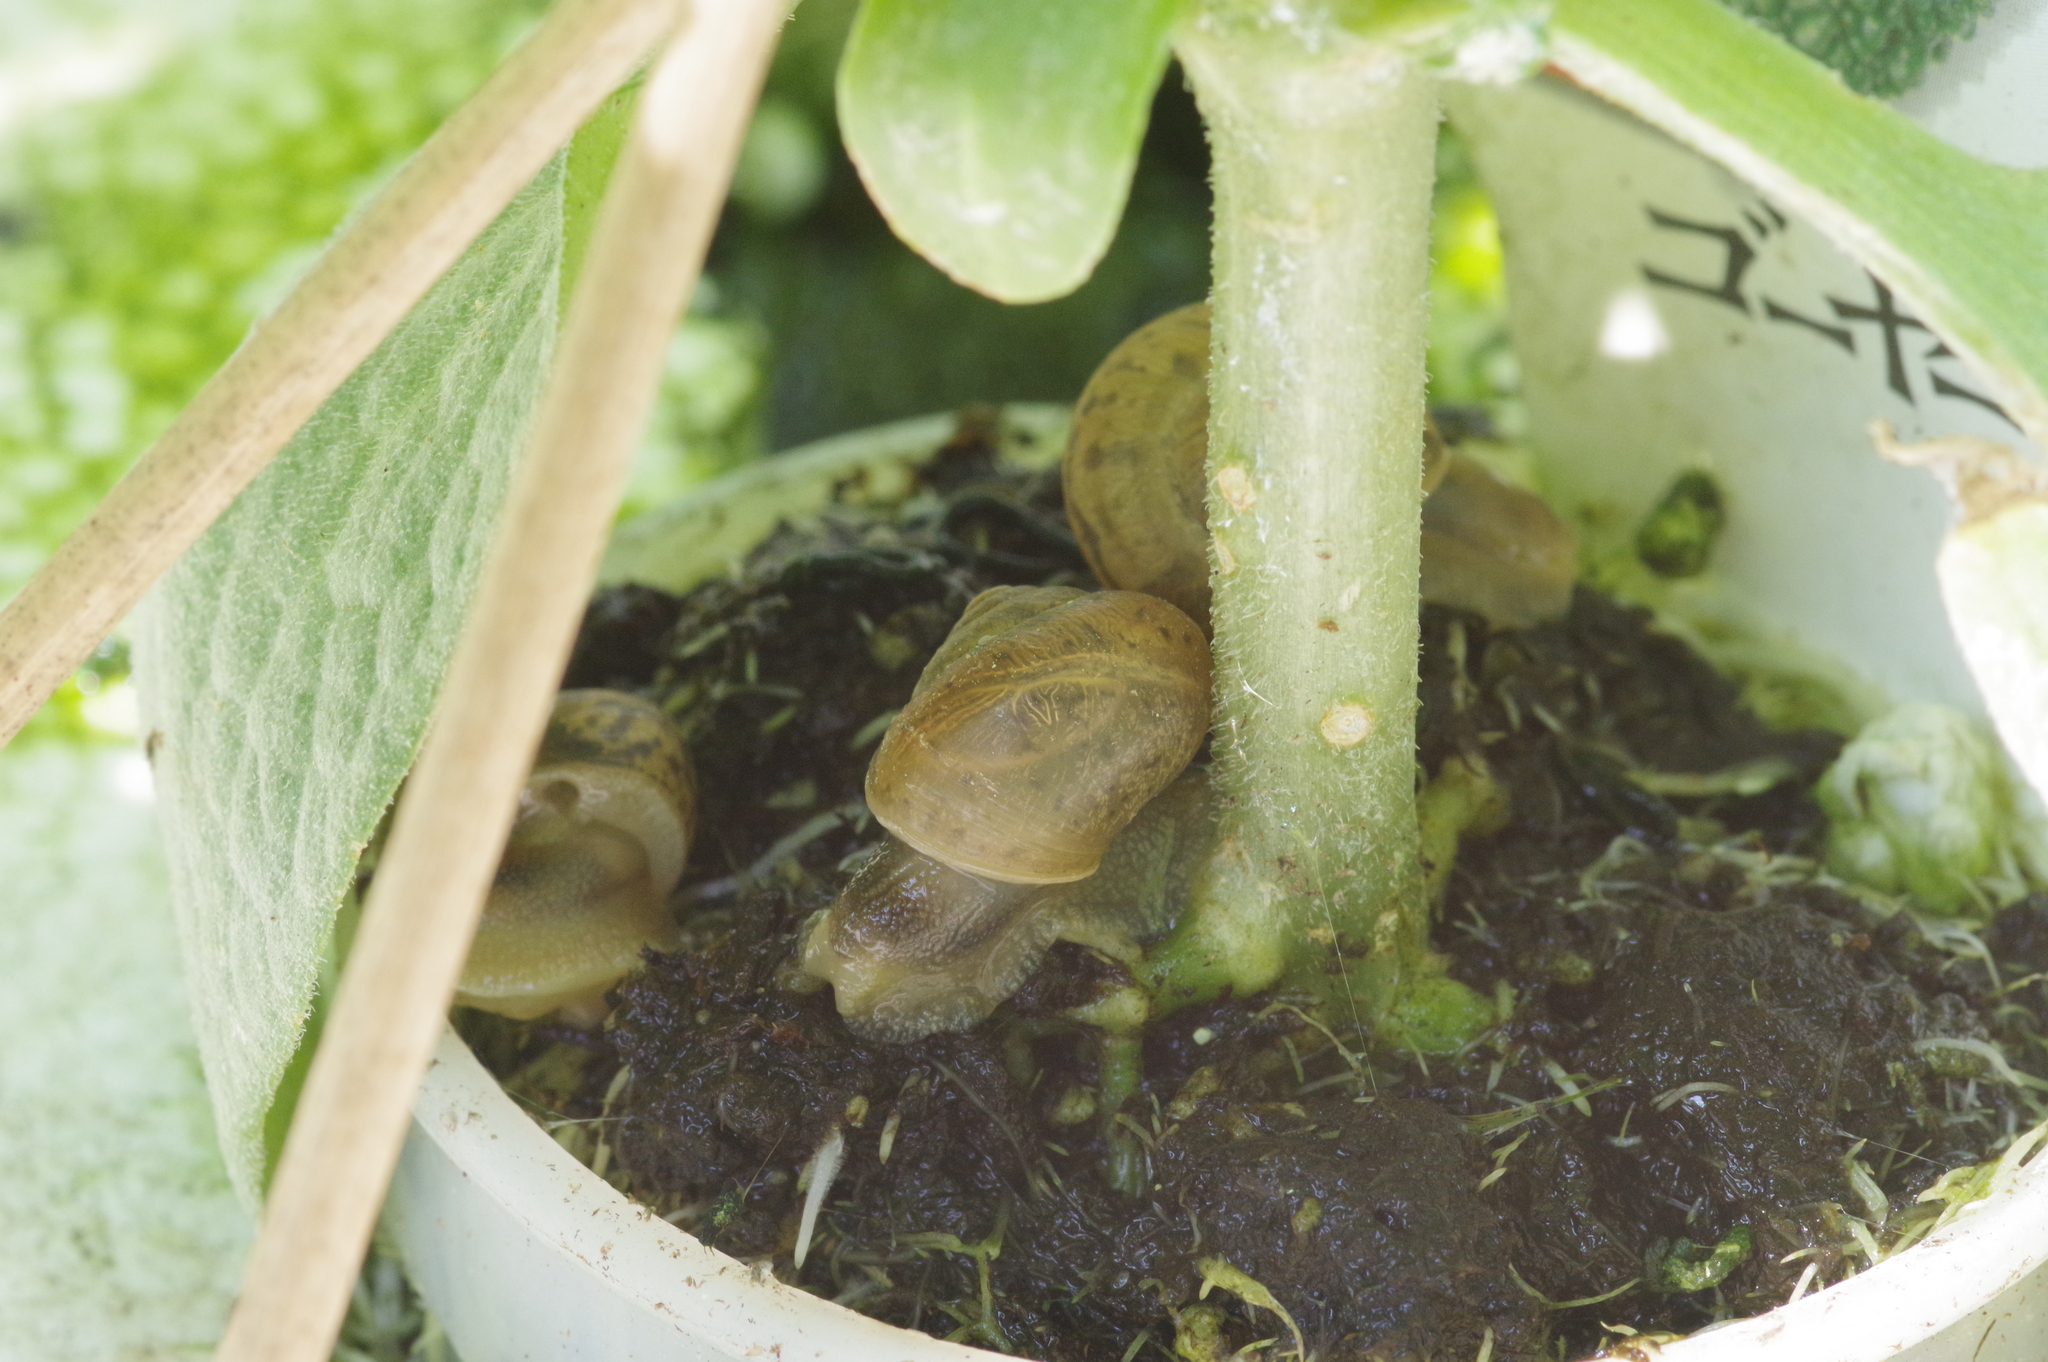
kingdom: Animalia
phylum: Mollusca
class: Gastropoda
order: Stylommatophora
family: Camaenidae
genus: Acusta
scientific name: Acusta despecta
